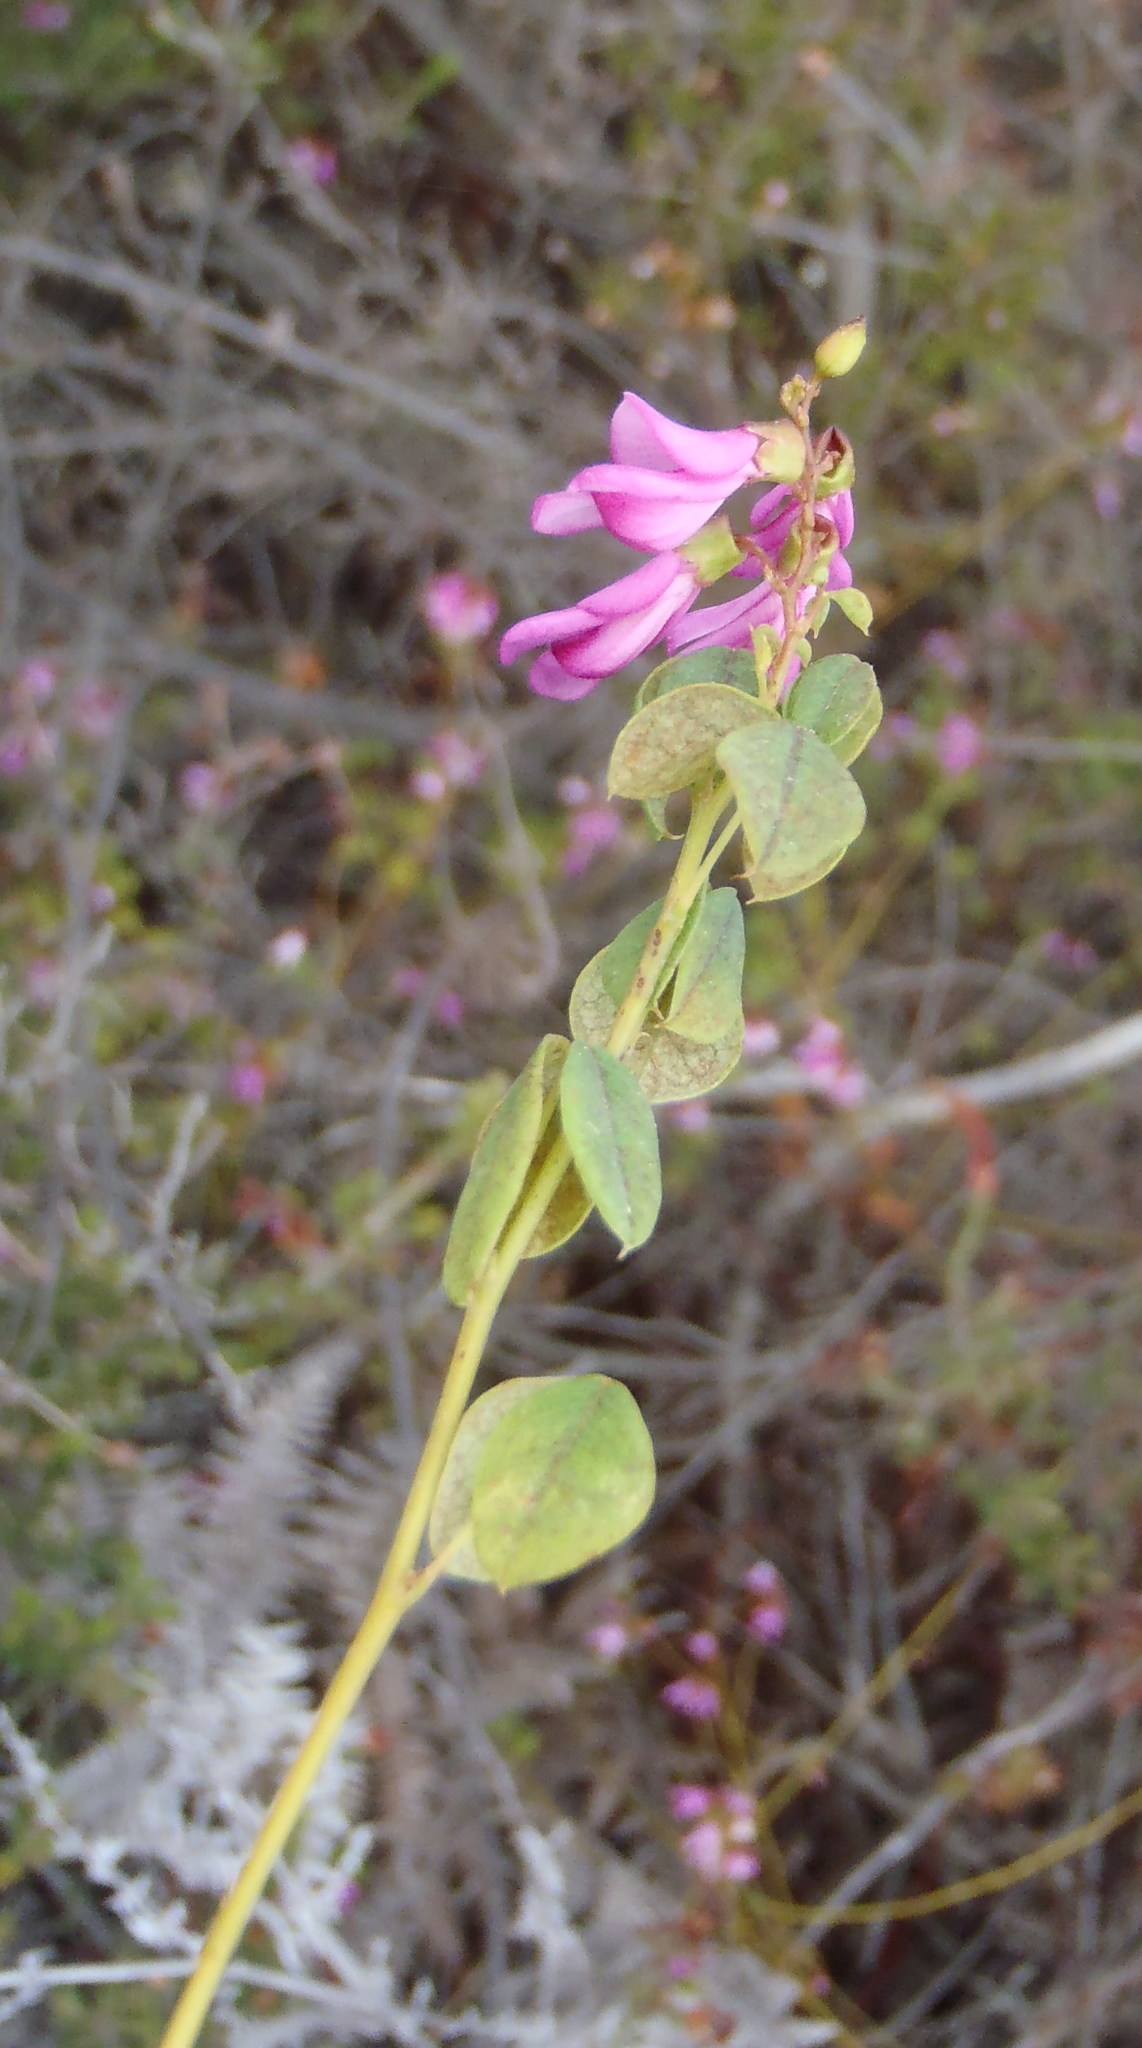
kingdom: Plantae
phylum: Tracheophyta
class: Magnoliopsida
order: Fabales
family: Fabaceae
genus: Hypocalyptus
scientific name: Hypocalyptus oxalidifolius
